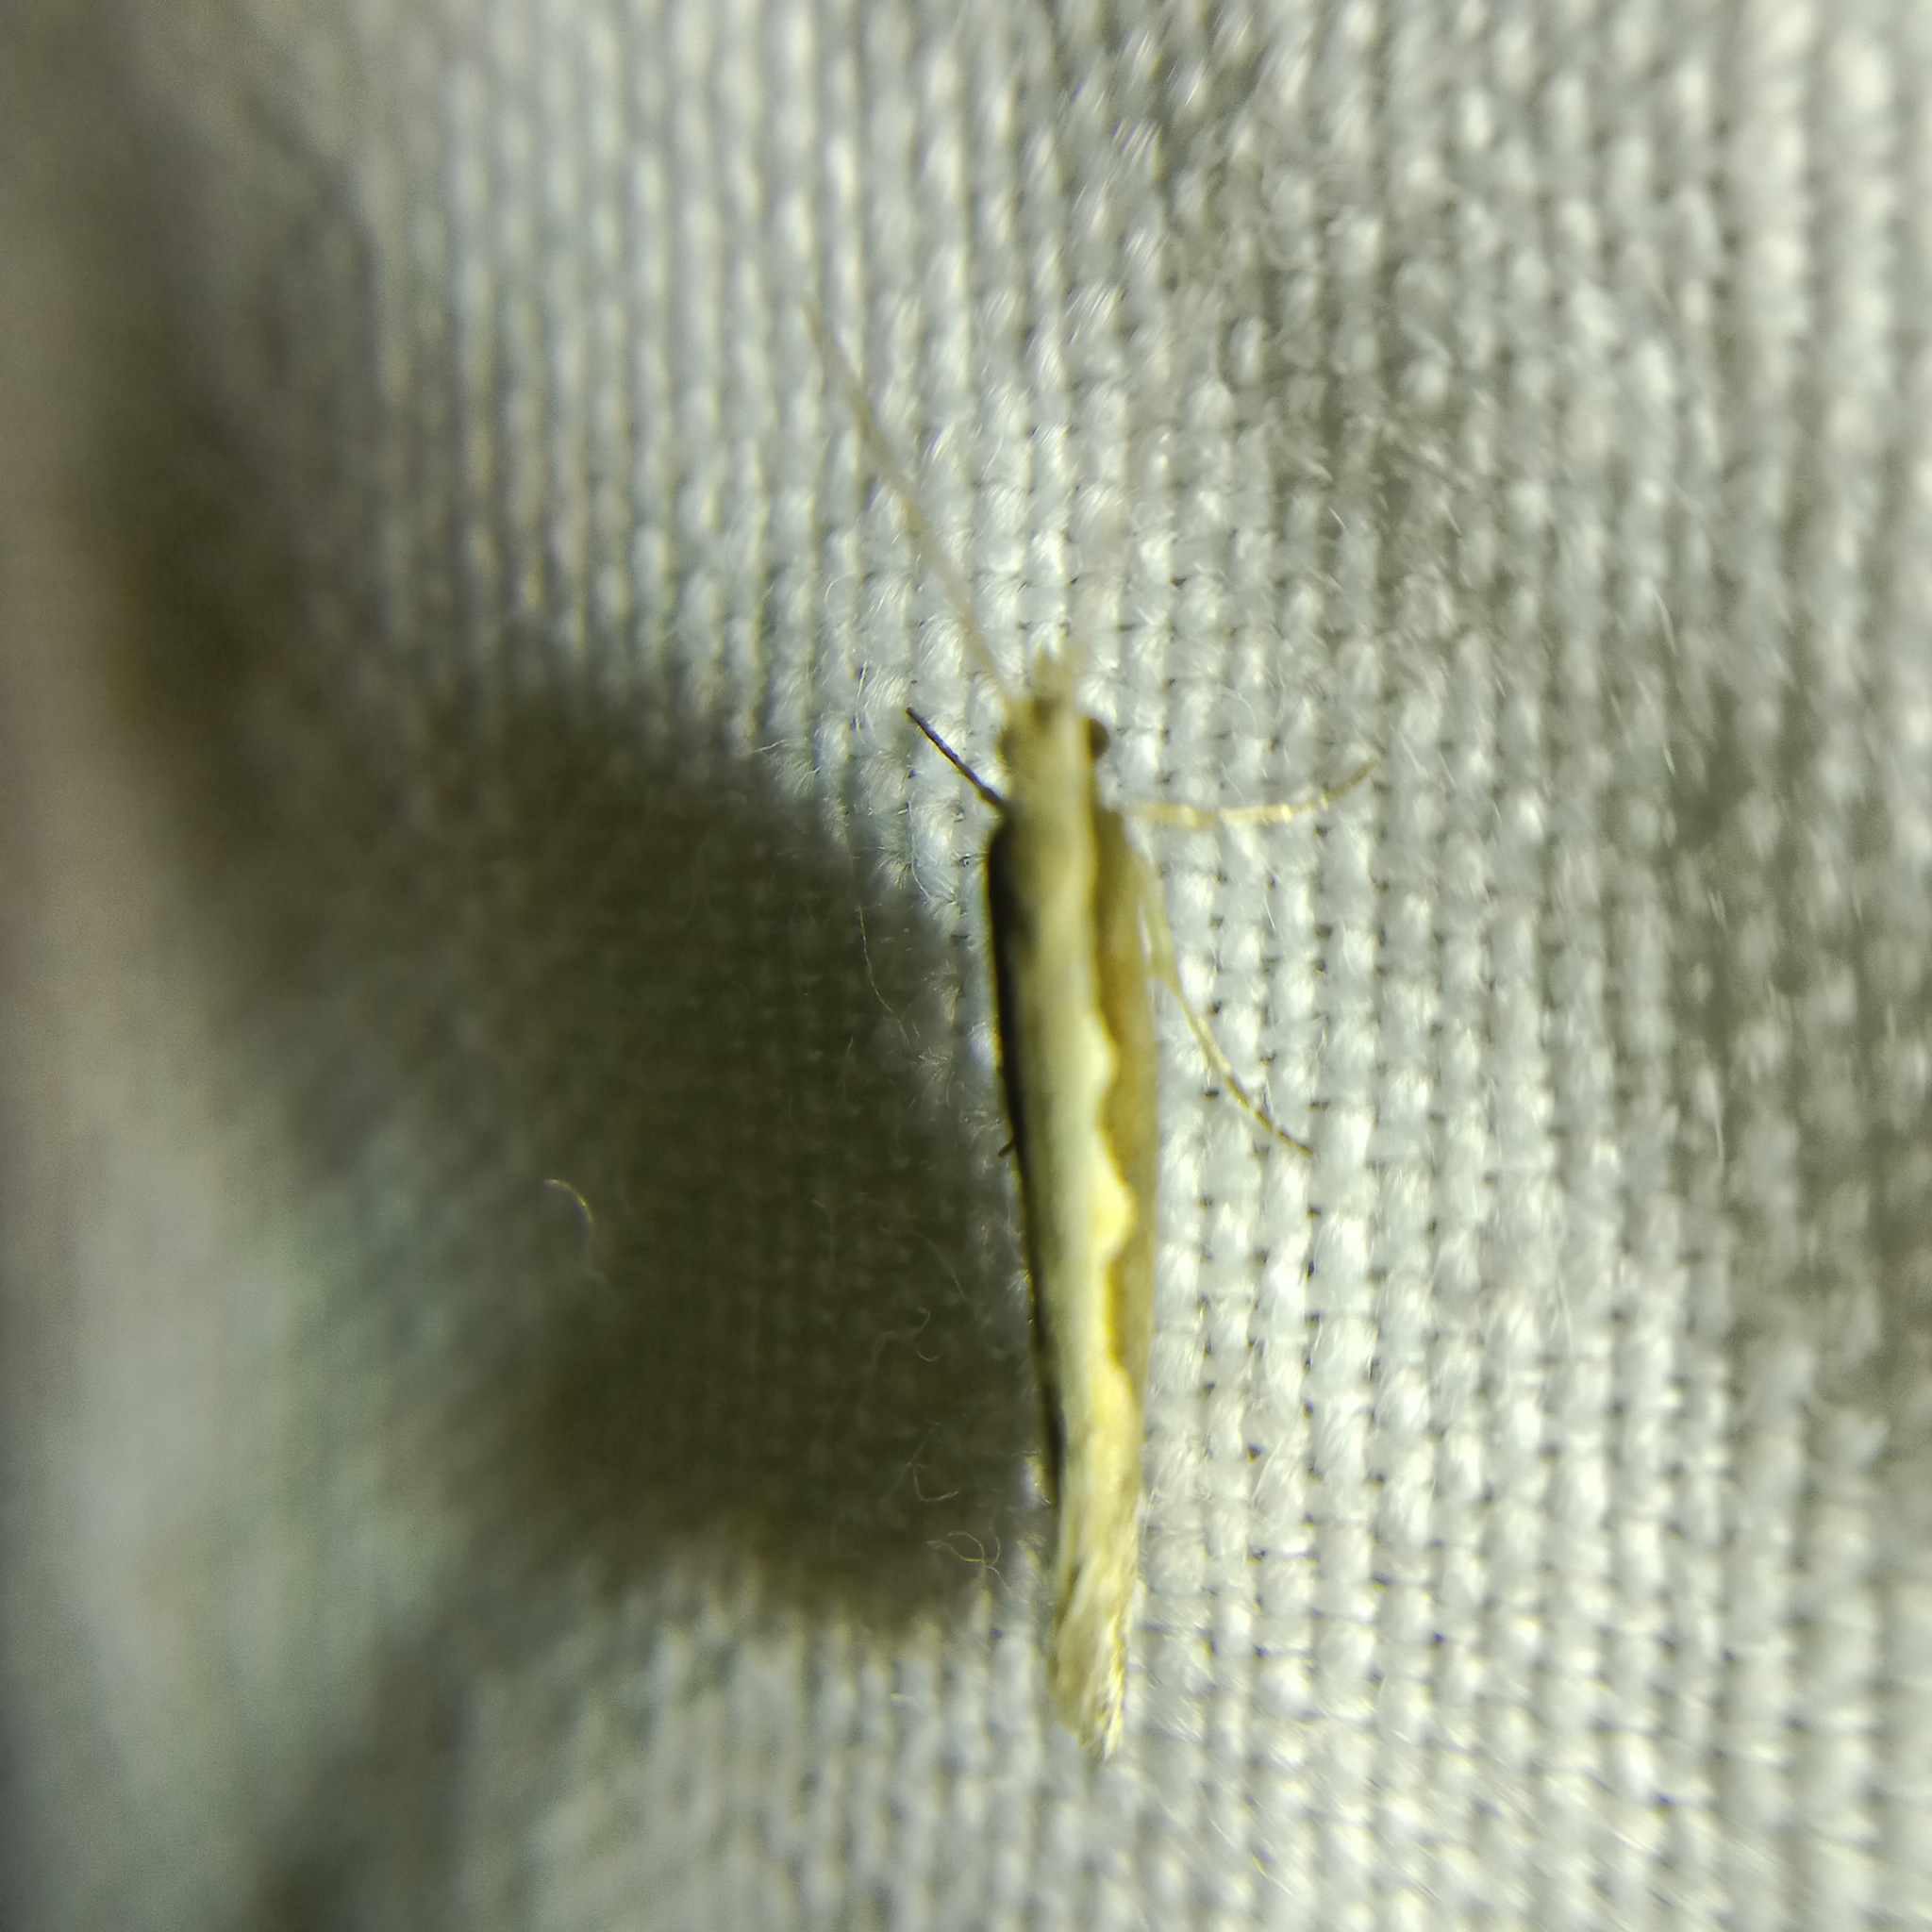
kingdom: Animalia
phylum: Arthropoda
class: Insecta
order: Lepidoptera
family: Plutellidae
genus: Plutella
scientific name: Plutella xylostella
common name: Diamond-back moth
